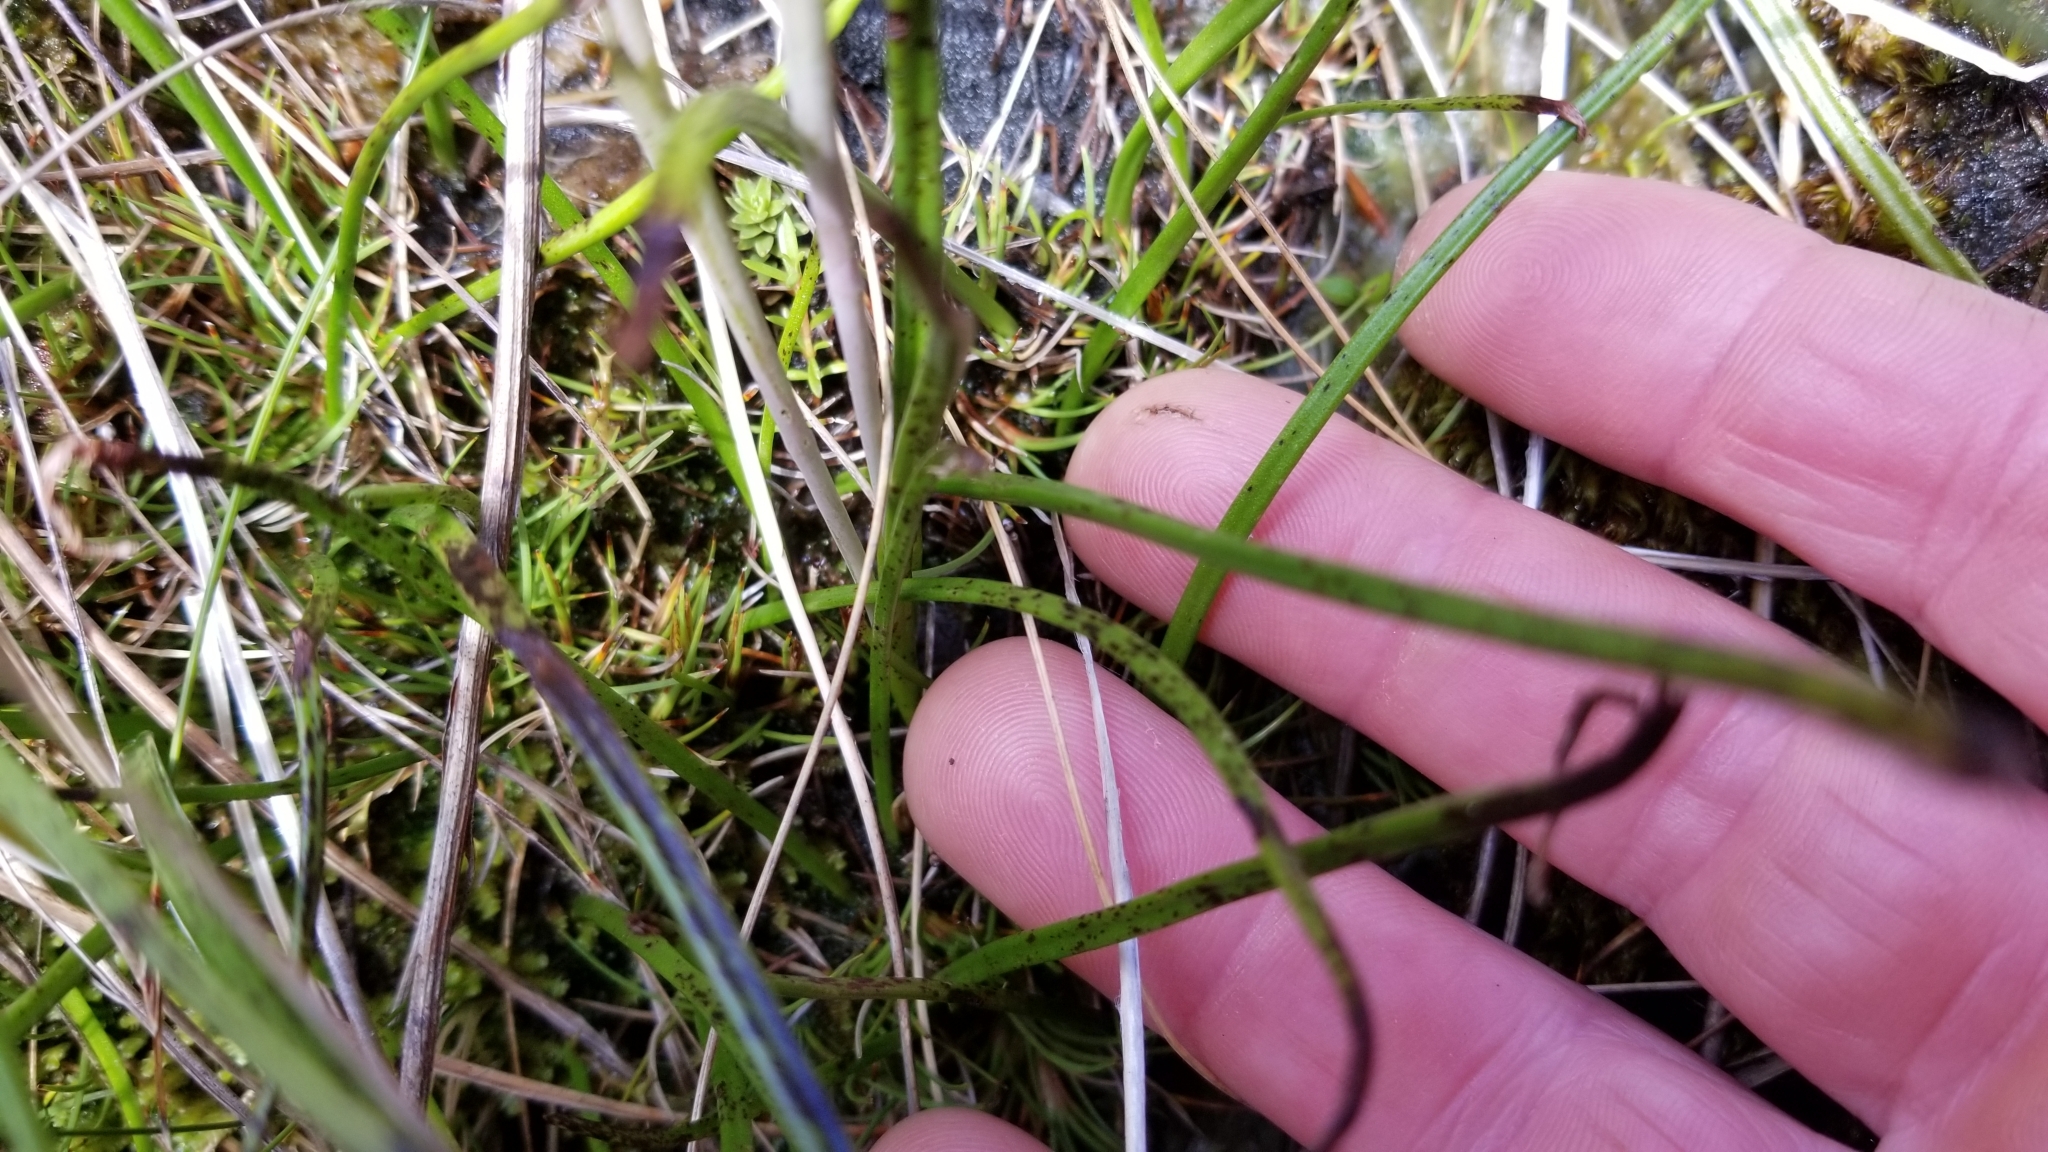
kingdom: Plantae
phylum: Tracheophyta
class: Liliopsida
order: Asparagales
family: Orchidaceae
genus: Thelymitra
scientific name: Thelymitra cyanea
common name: Blue sun-orchid
